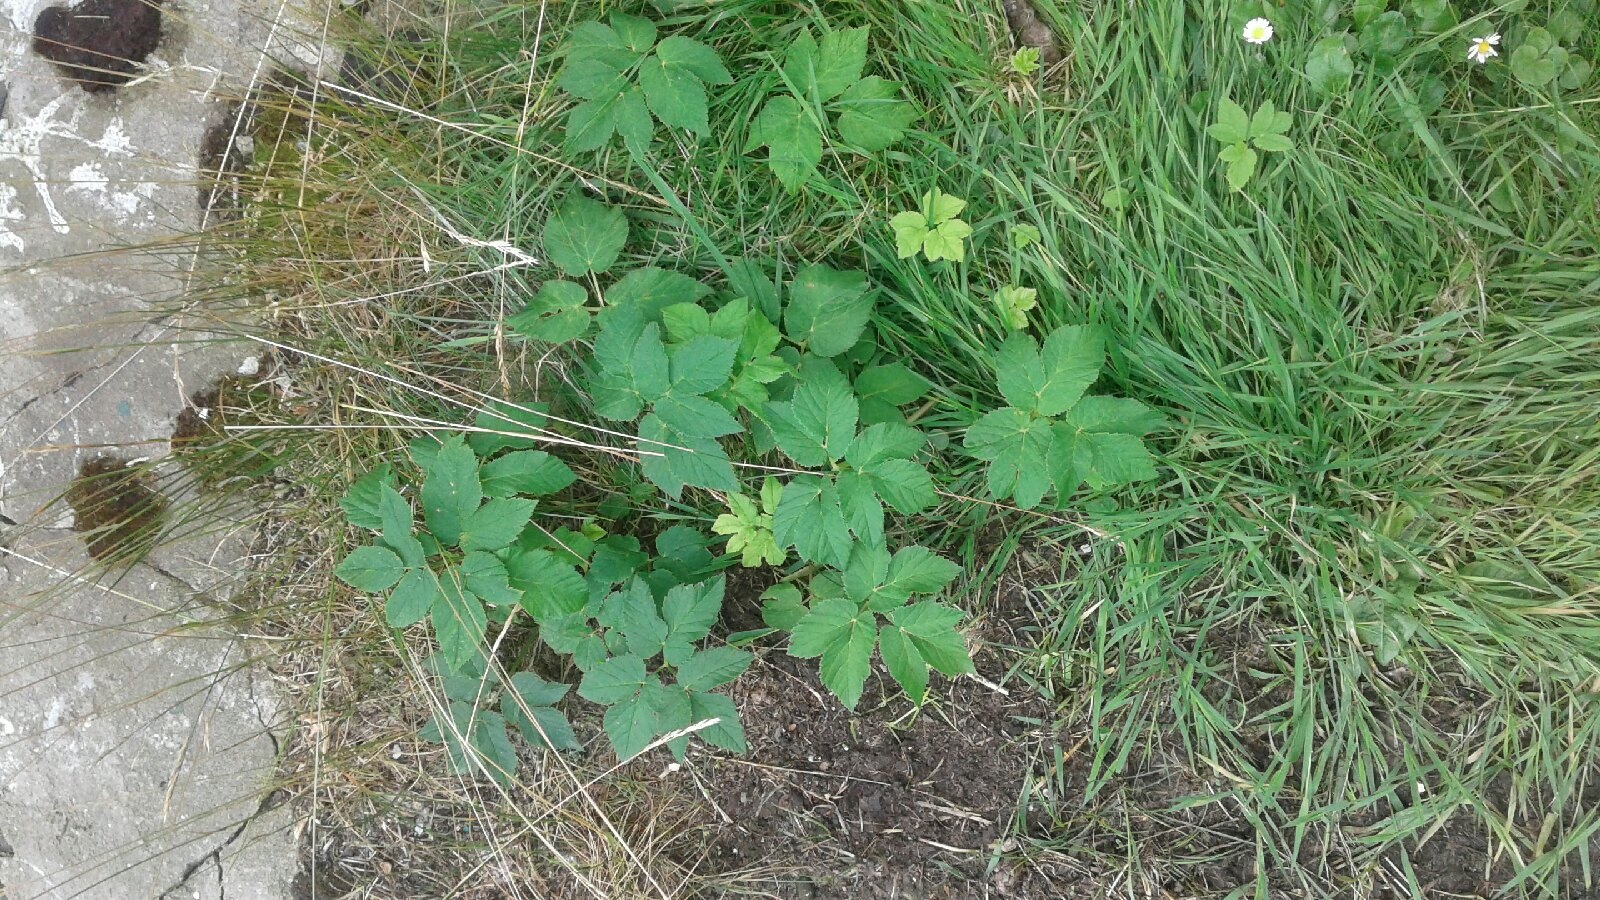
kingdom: Plantae
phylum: Tracheophyta
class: Magnoliopsida
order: Apiales
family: Apiaceae
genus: Aegopodium
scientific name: Aegopodium podagraria
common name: Ground-elder
